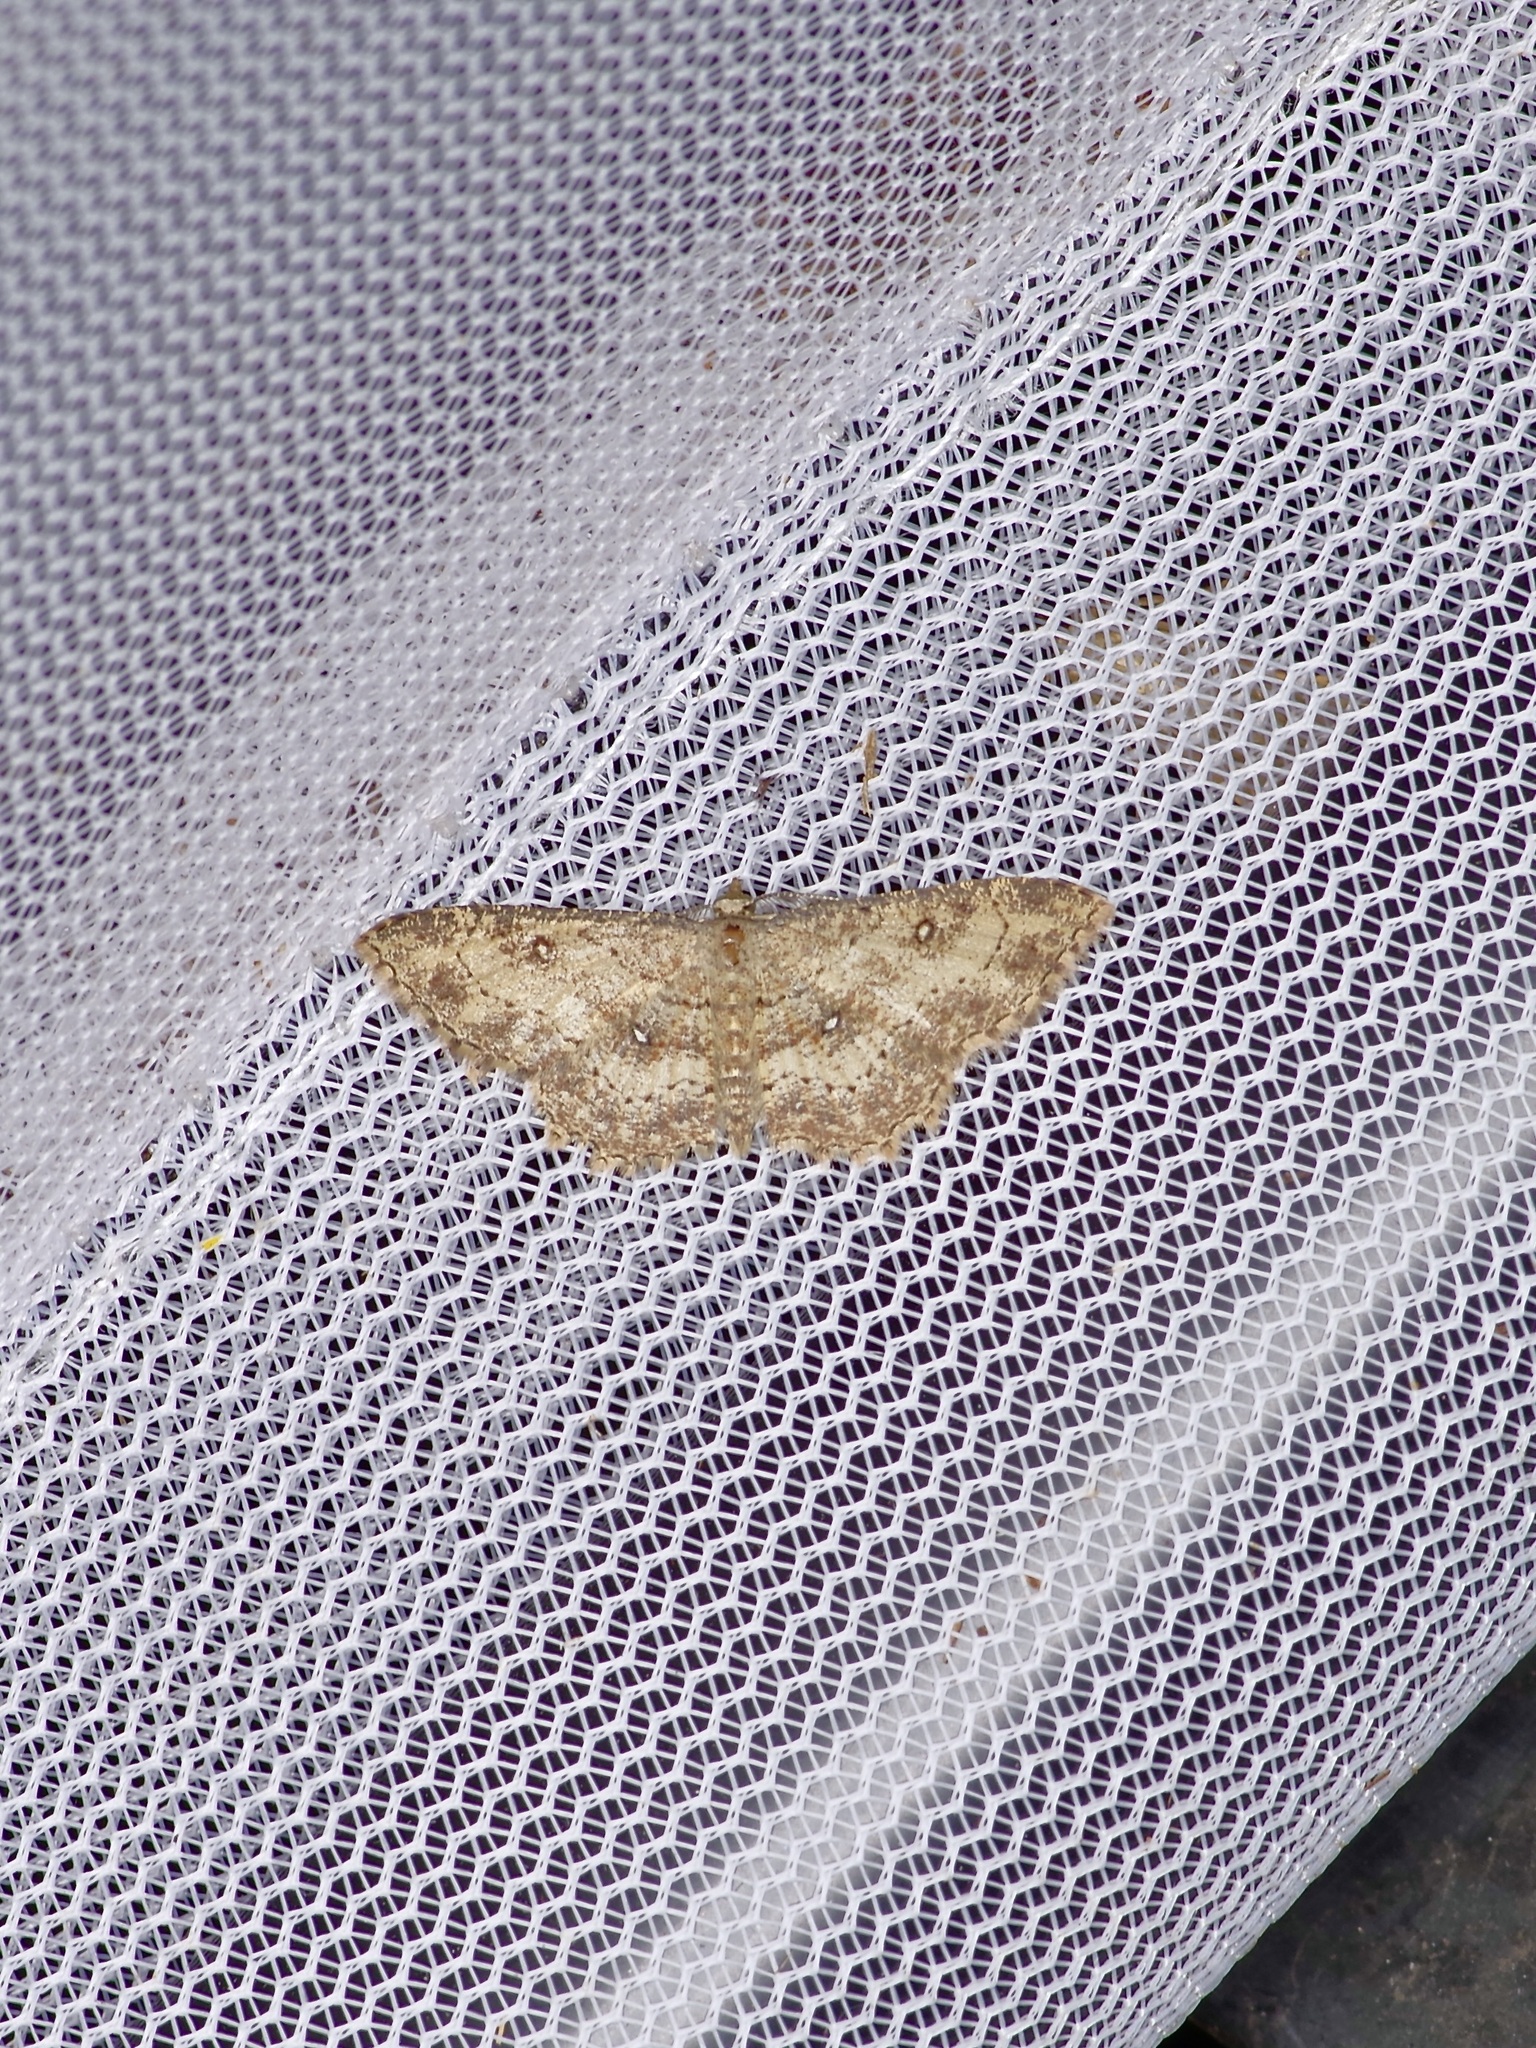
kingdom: Animalia
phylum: Arthropoda
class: Insecta
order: Lepidoptera
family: Geometridae
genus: Cyclophora
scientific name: Cyclophora nanaria
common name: Cankerworm
